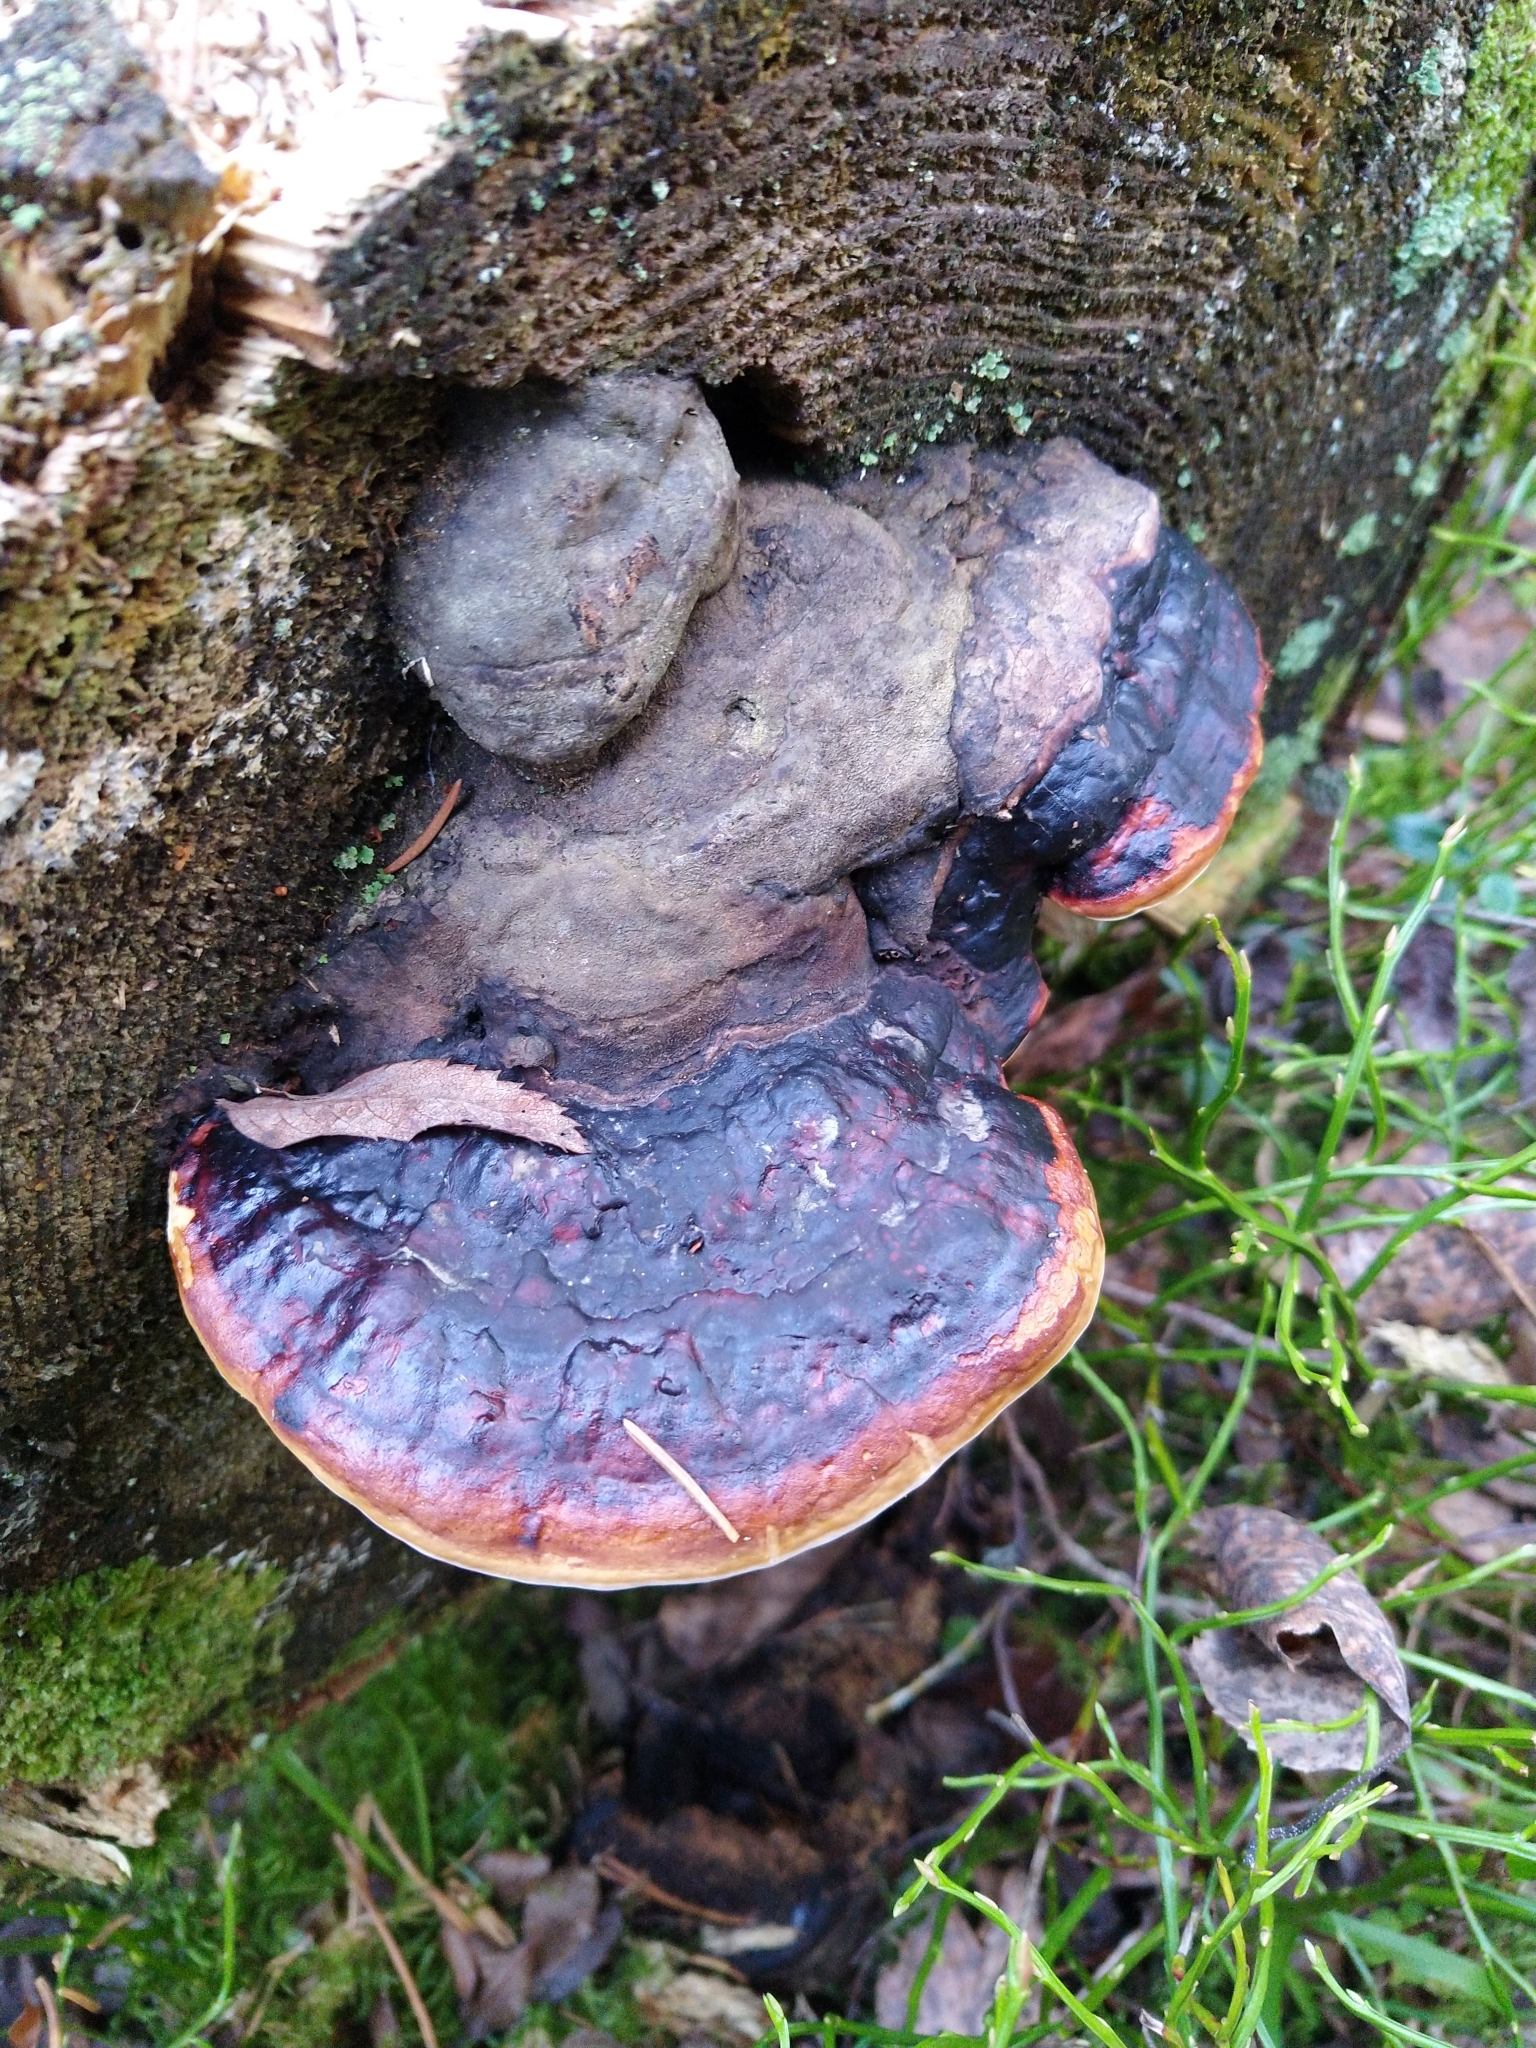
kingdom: Fungi
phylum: Basidiomycota
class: Agaricomycetes
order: Polyporales
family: Fomitopsidaceae
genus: Fomitopsis
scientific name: Fomitopsis pinicola
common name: Red-belted bracket
